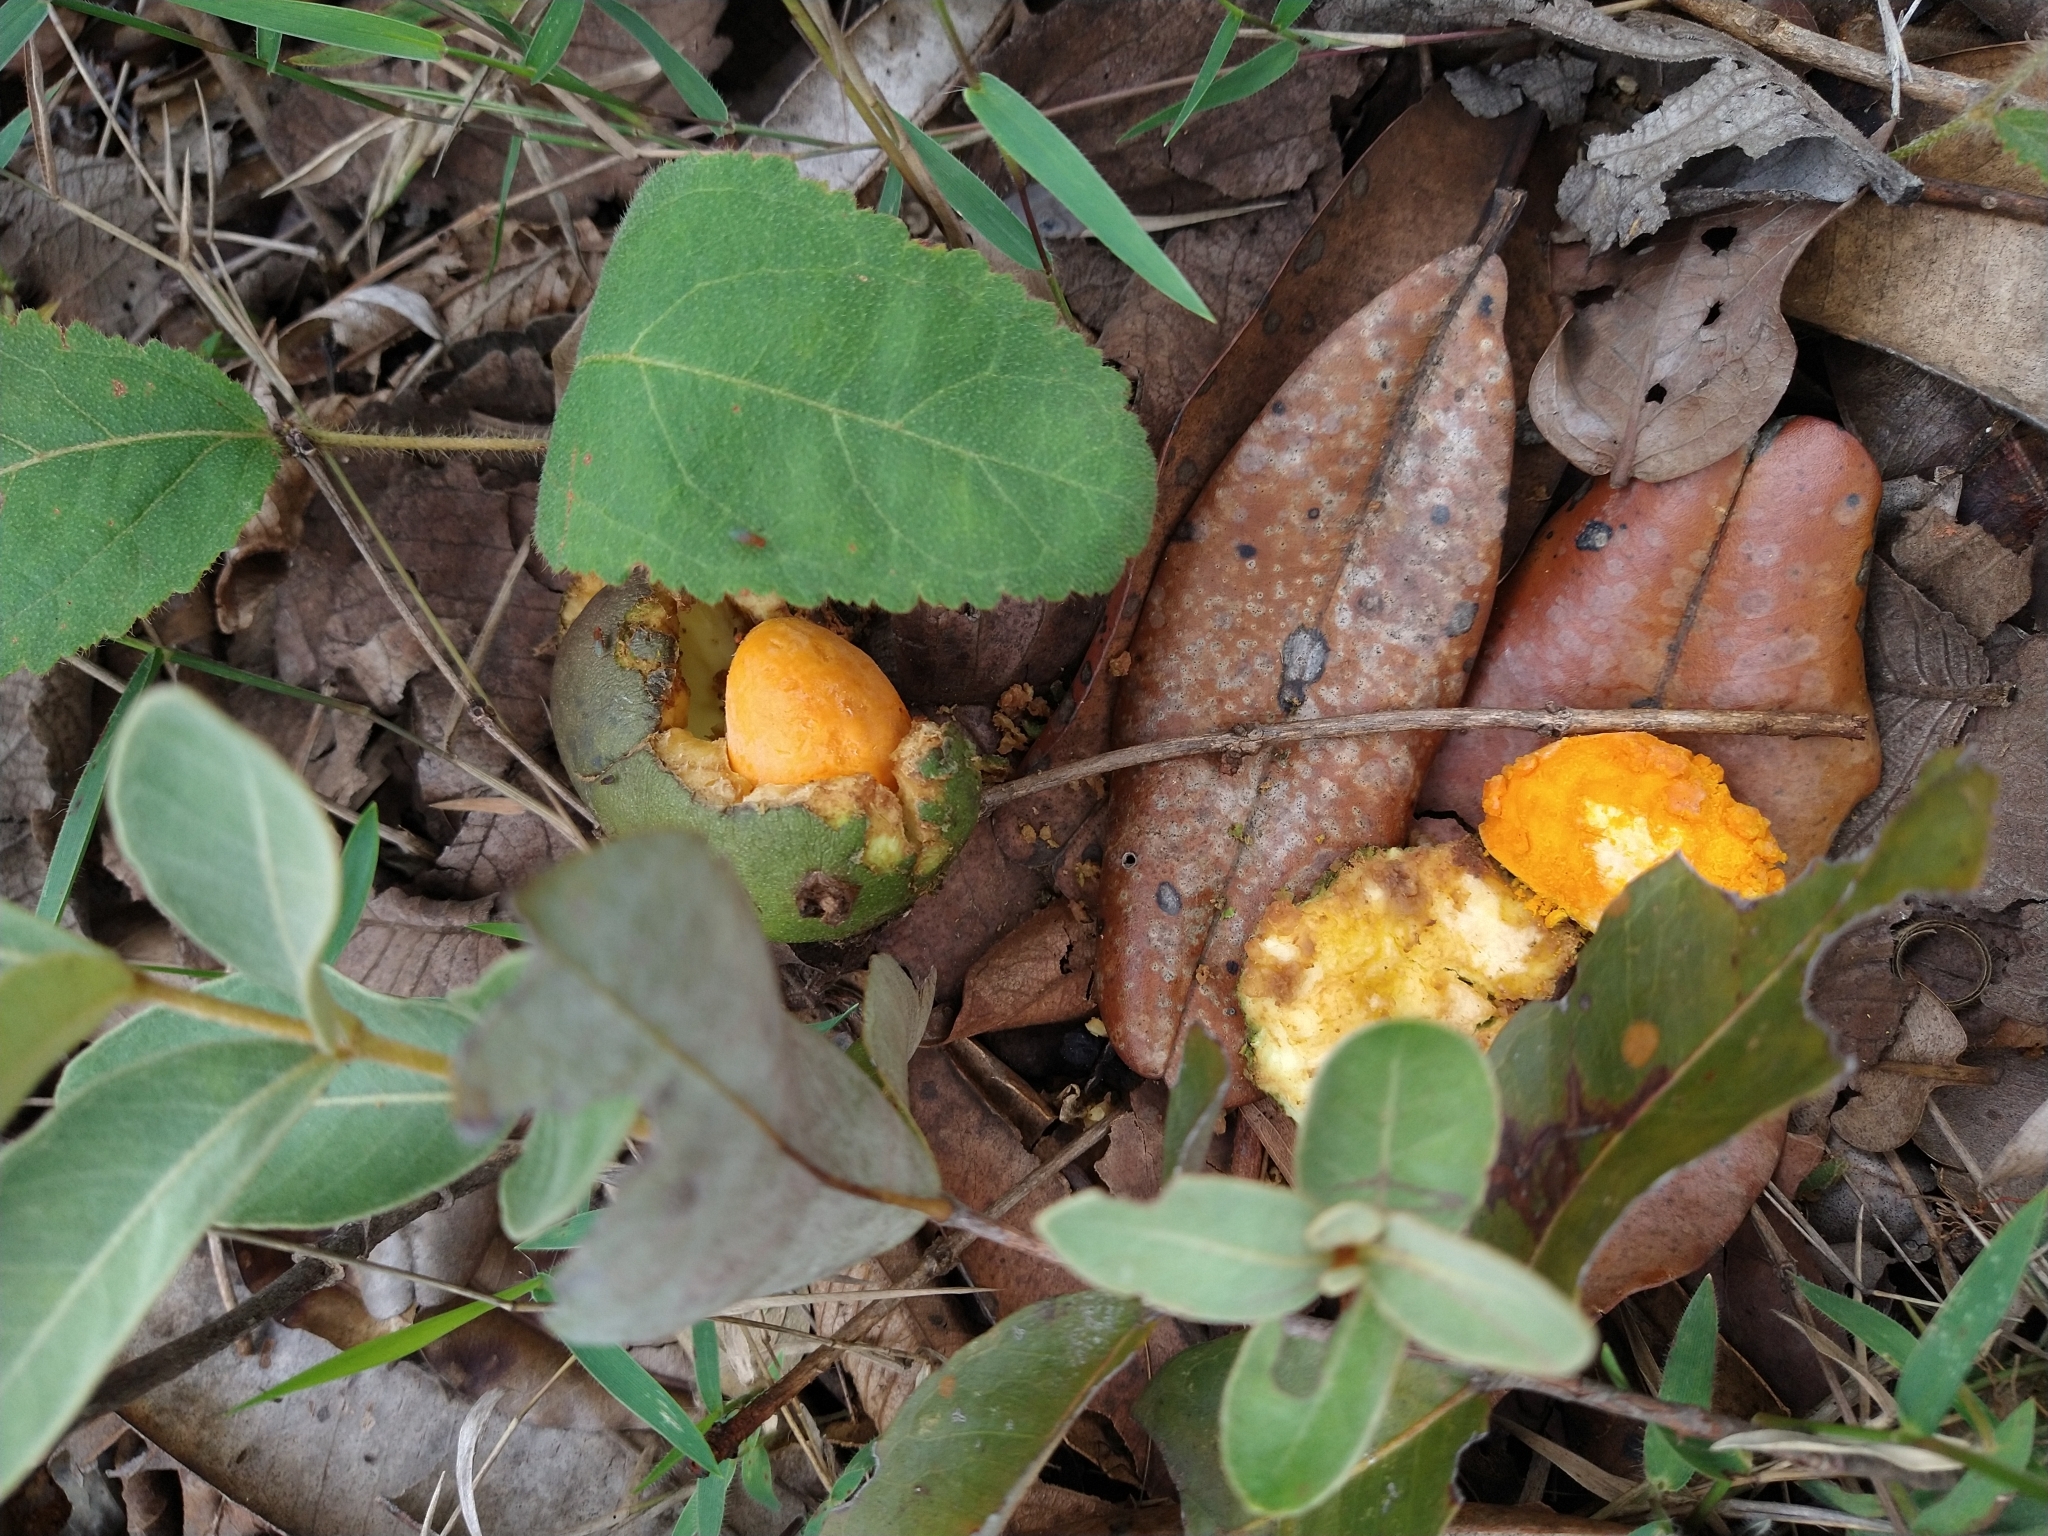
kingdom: Plantae
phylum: Tracheophyta
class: Magnoliopsida
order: Malpighiales
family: Caryocaraceae
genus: Caryocar
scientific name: Caryocar brasiliense
